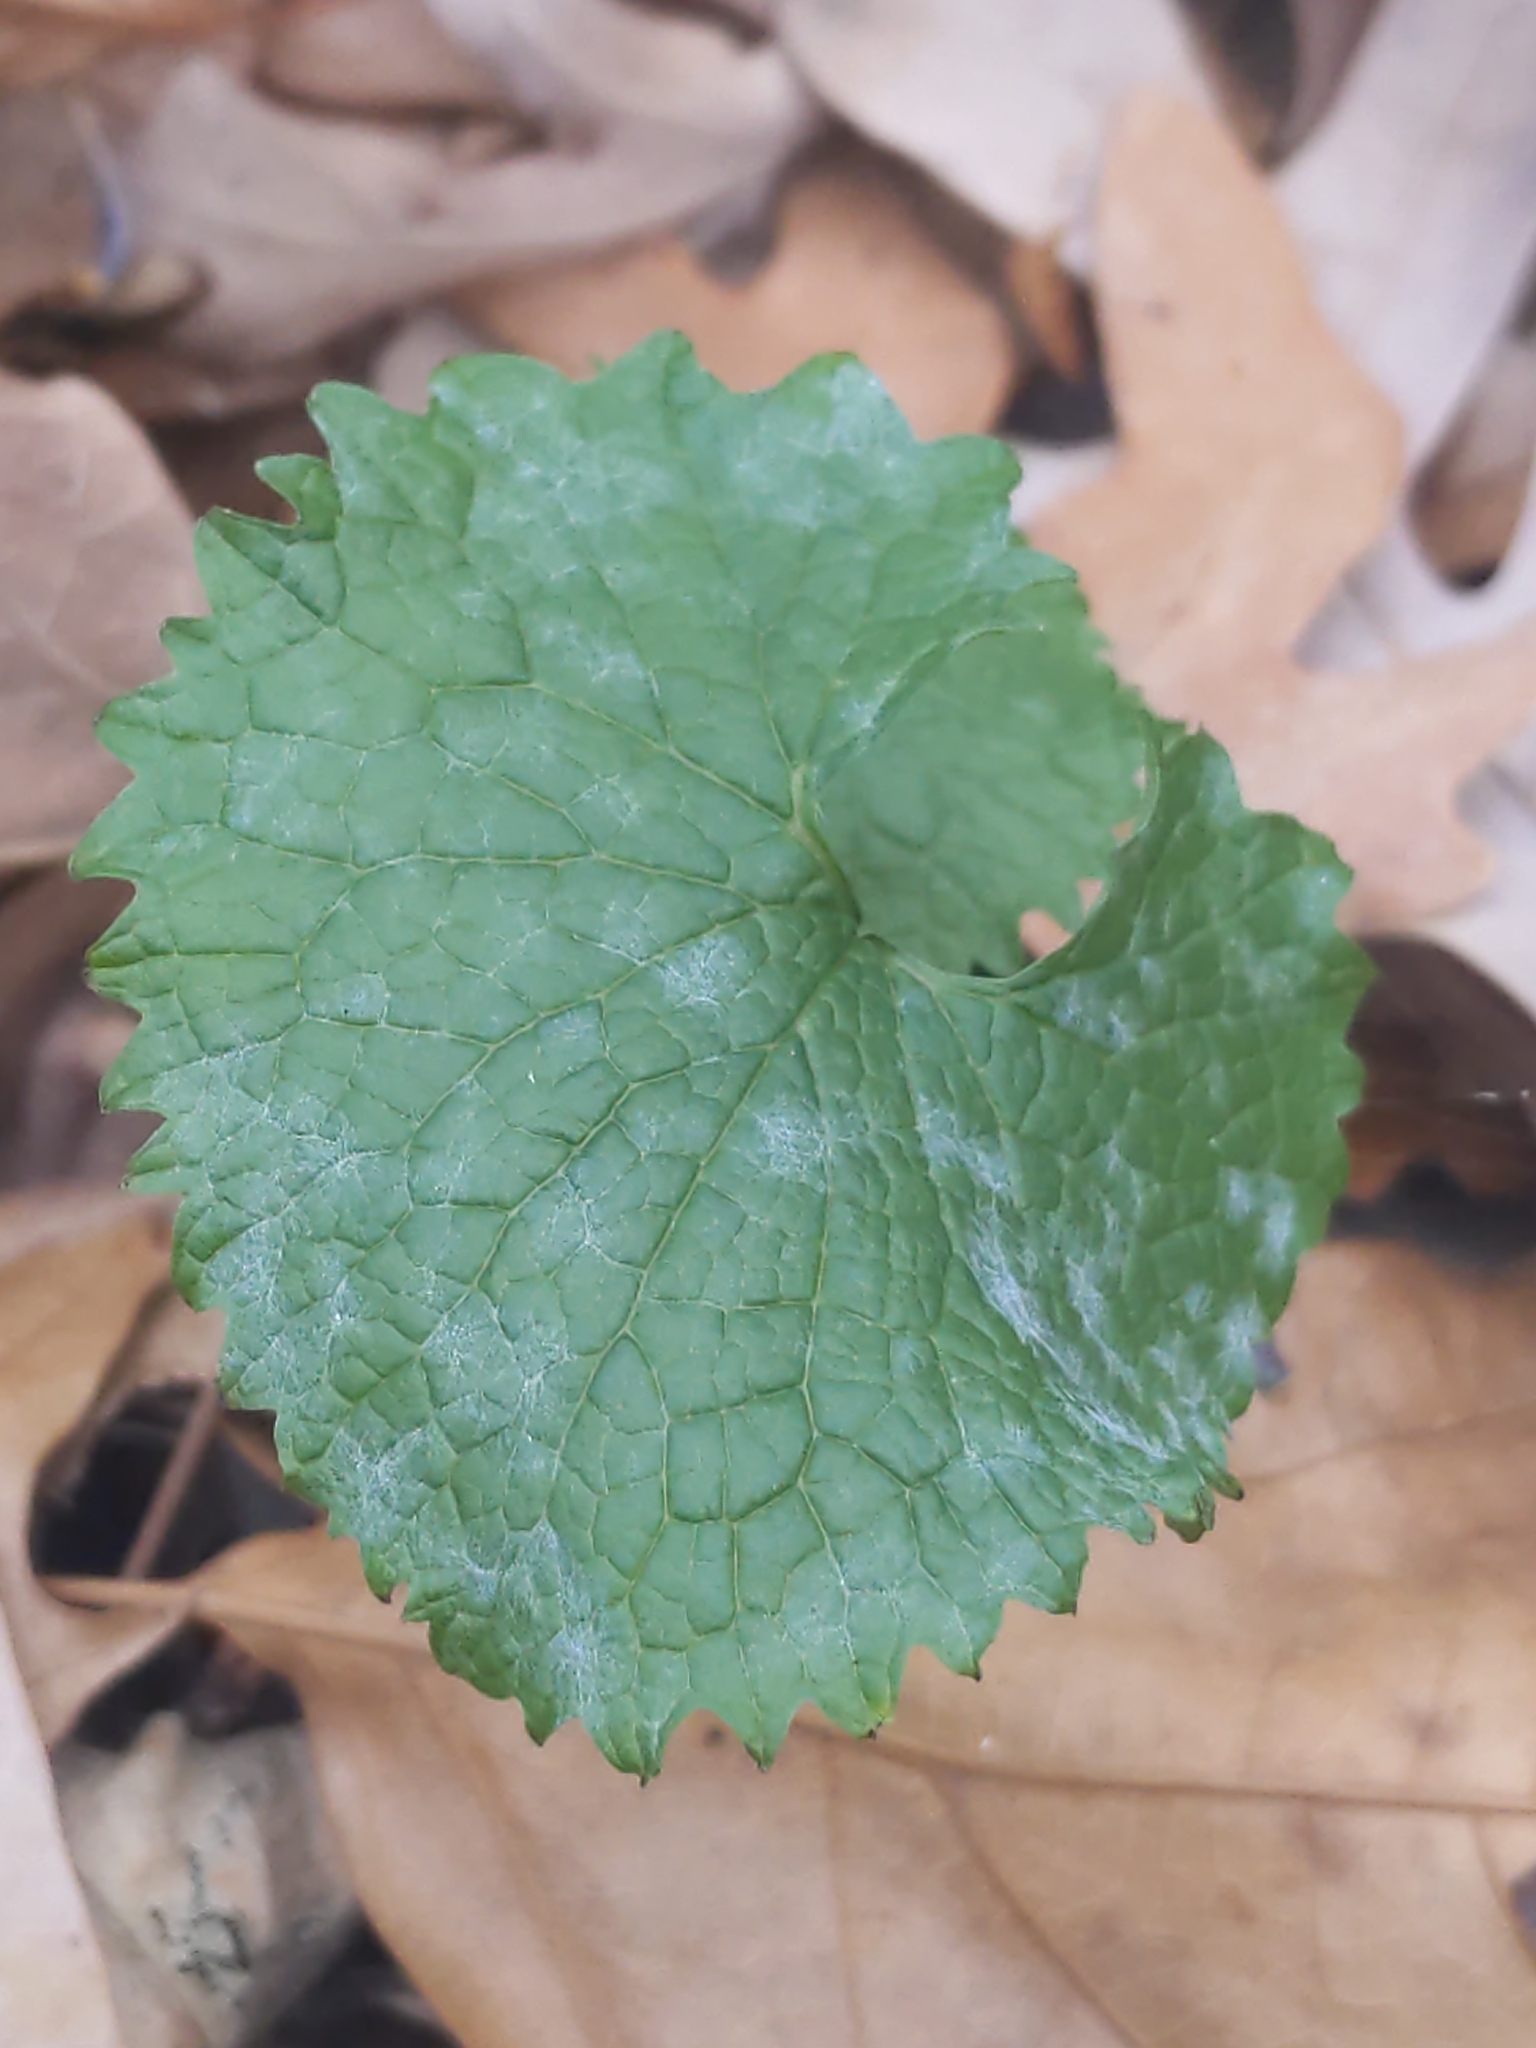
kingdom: Fungi
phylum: Ascomycota
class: Leotiomycetes
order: Helotiales
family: Erysiphaceae
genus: Erysiphe
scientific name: Erysiphe cruciferarum
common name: Brassica powdery mildew
